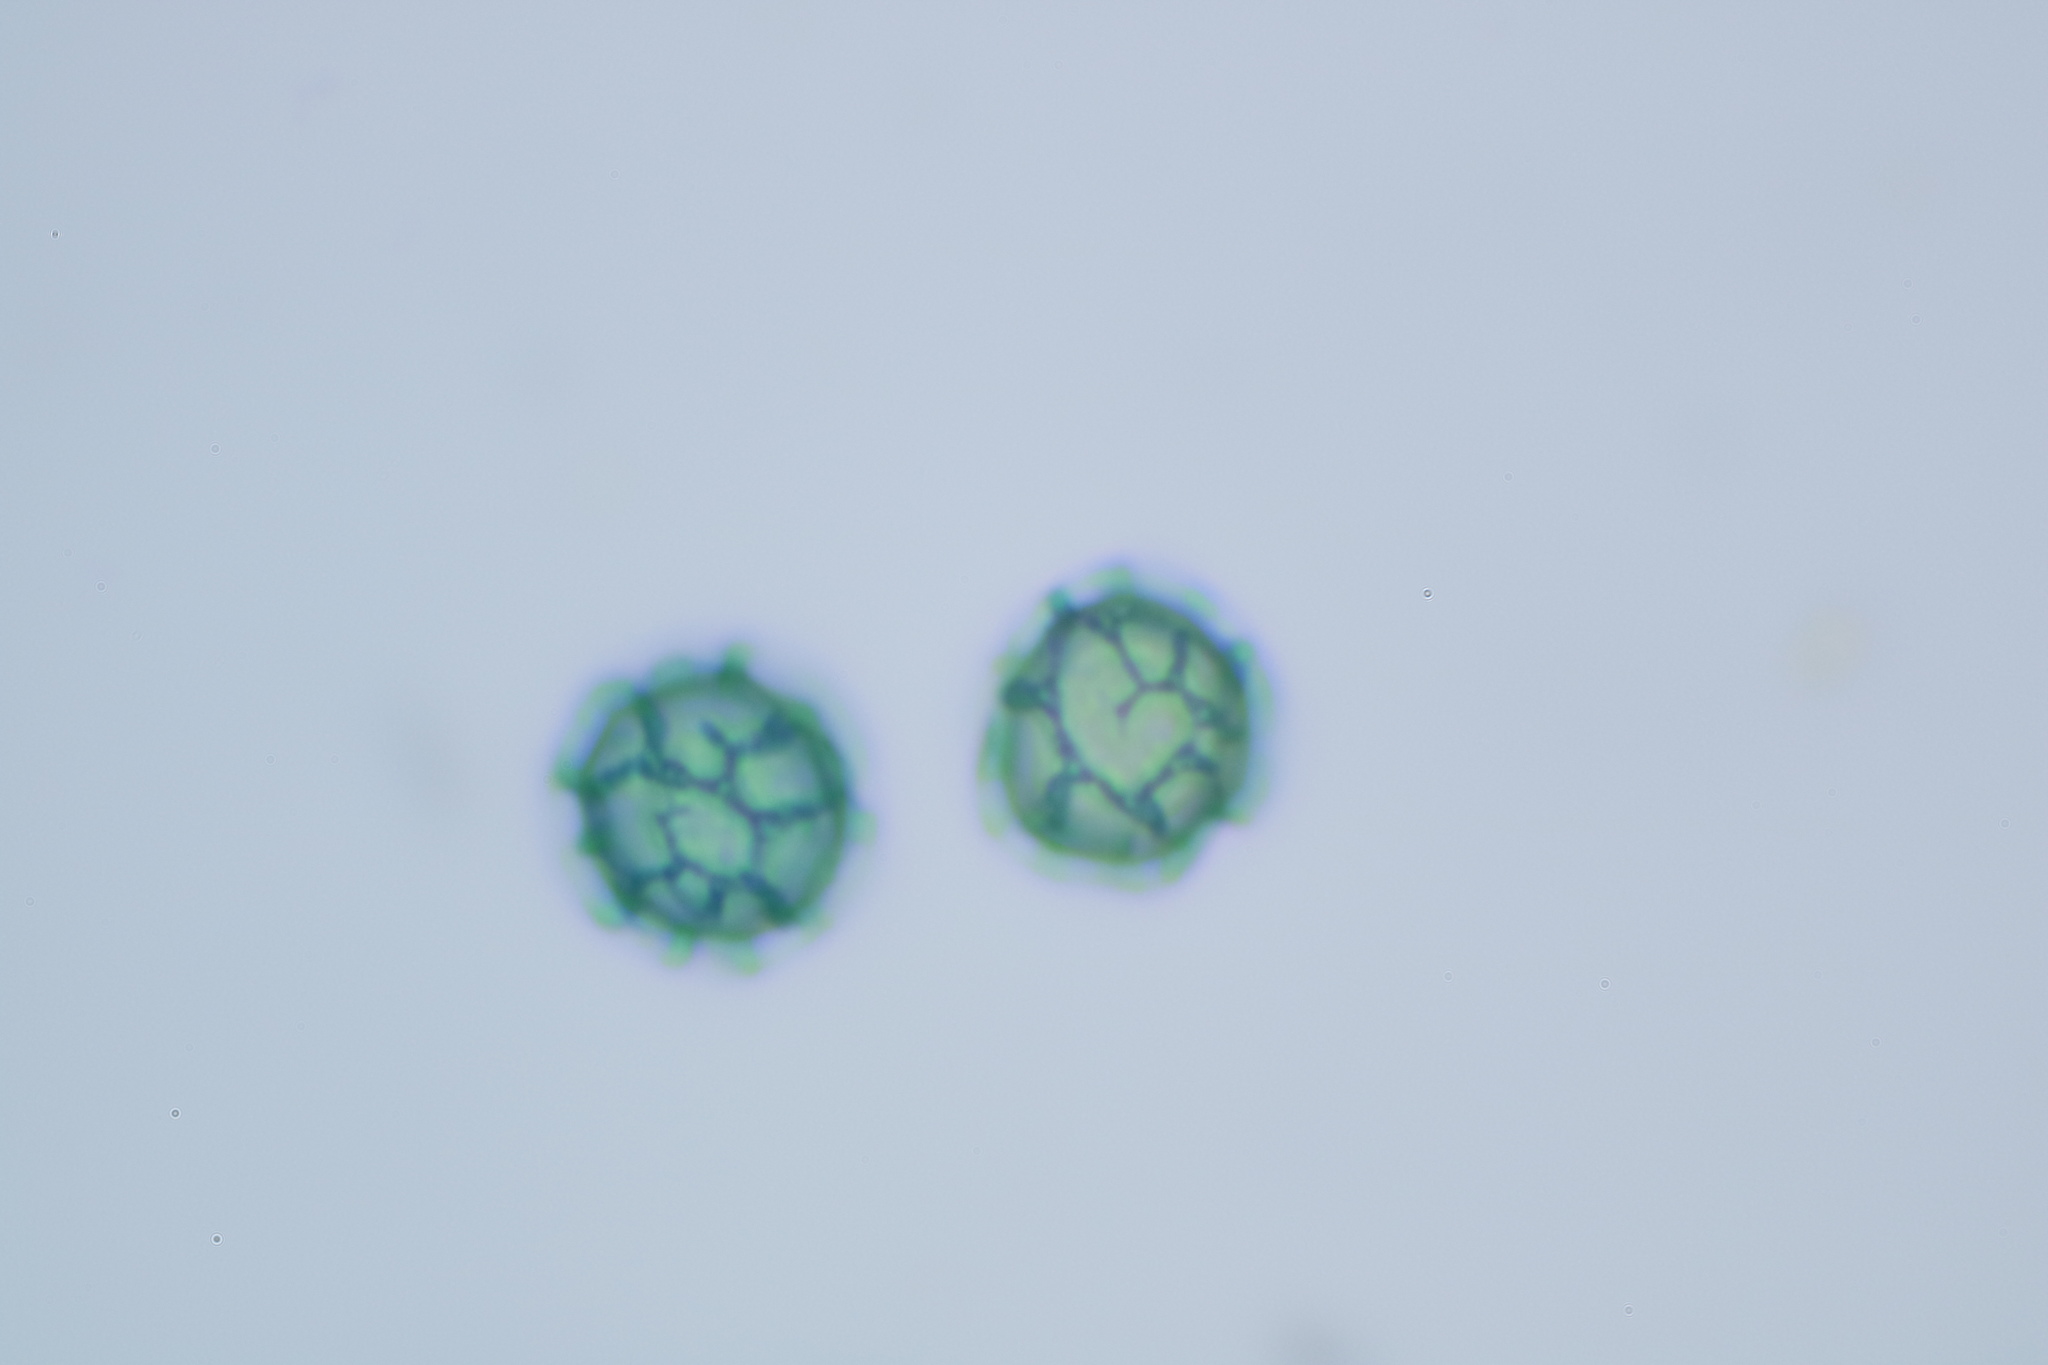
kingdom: Protozoa
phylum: Mycetozoa
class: Myxomycetes
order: Trichiales
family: Trichiaceae
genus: Oligonema
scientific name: Oligonema verrucosum
